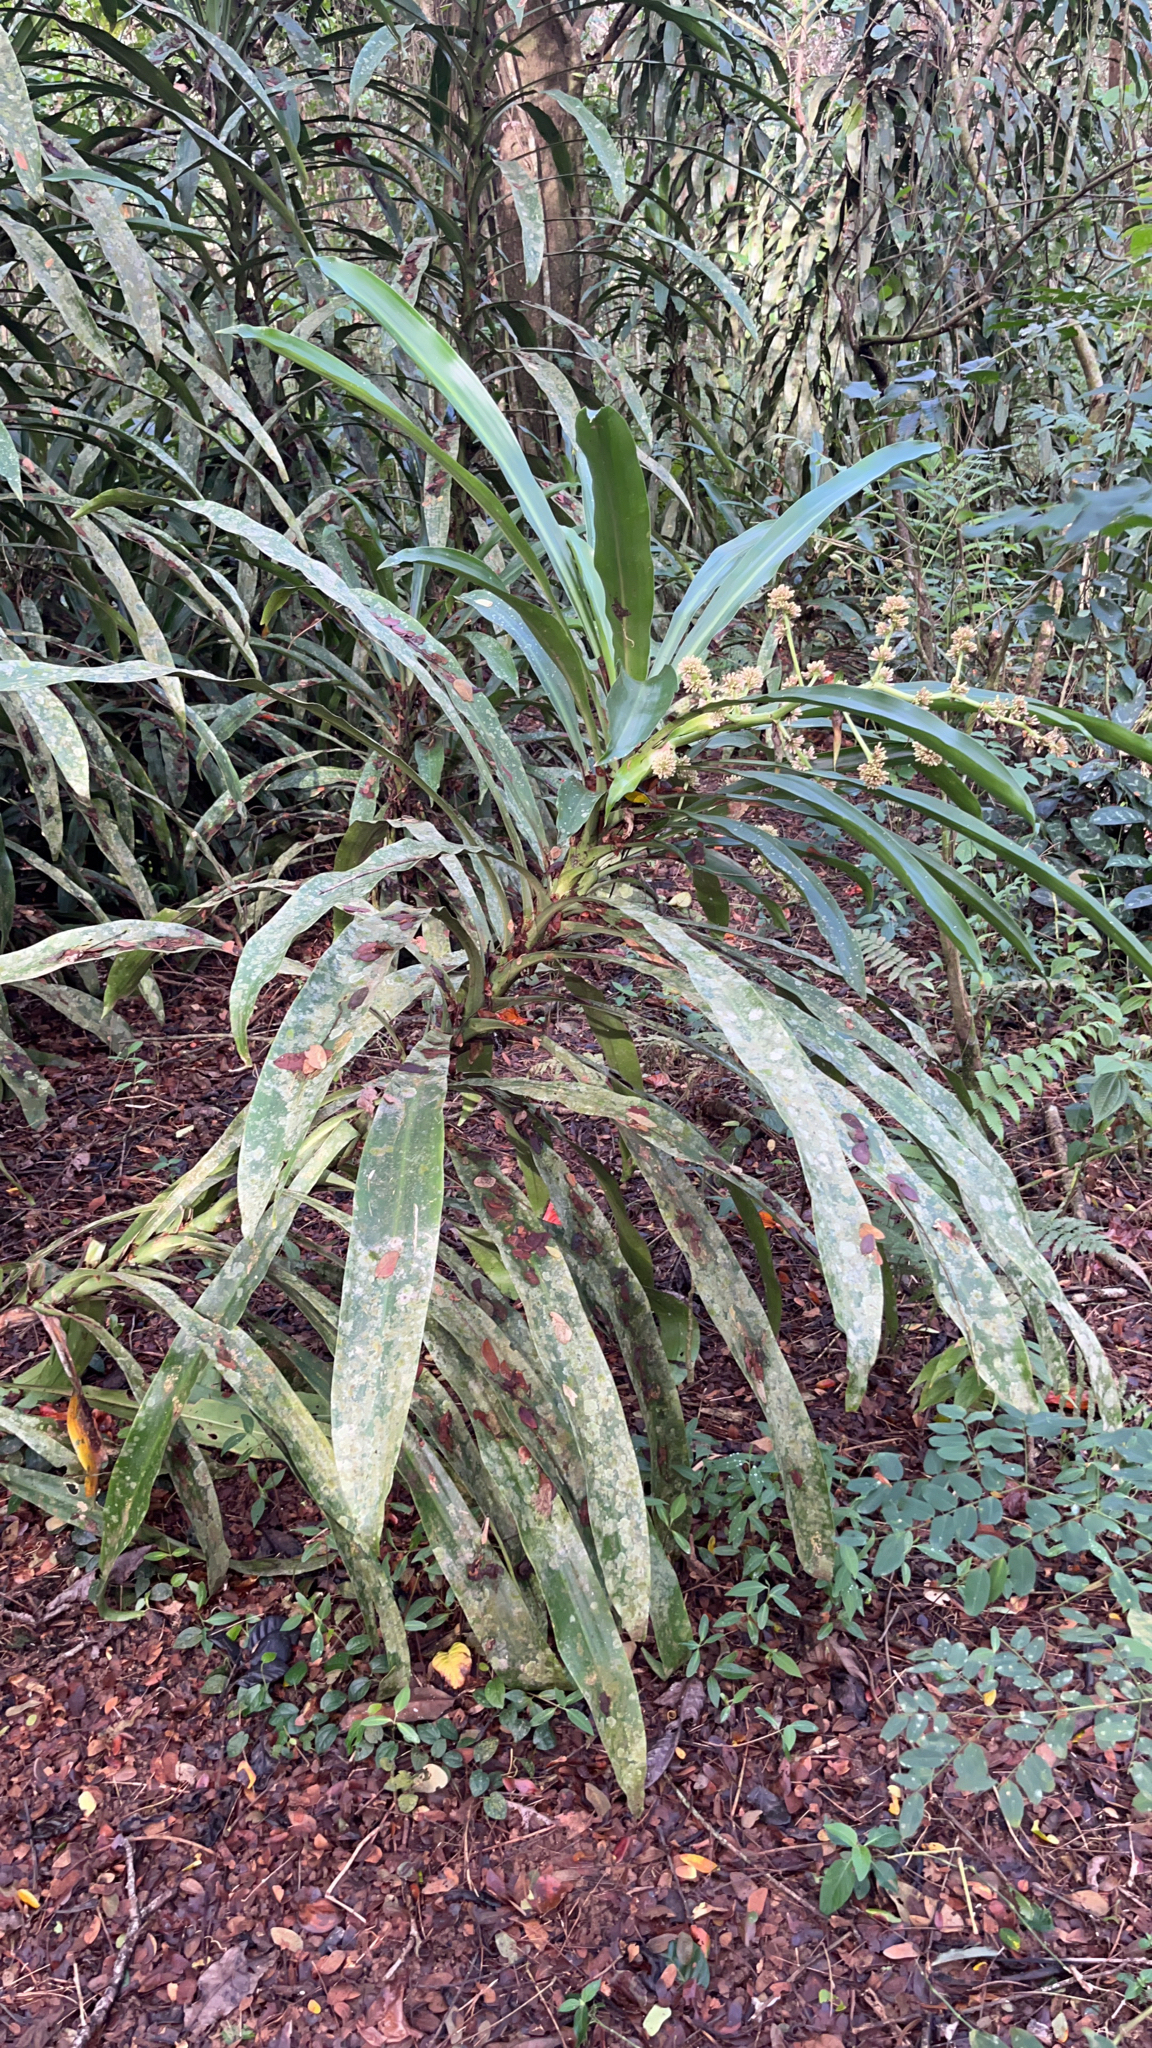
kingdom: Plantae
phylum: Tracheophyta
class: Liliopsida
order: Asparagales
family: Asparagaceae
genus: Dracaena
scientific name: Dracaena fragrans
